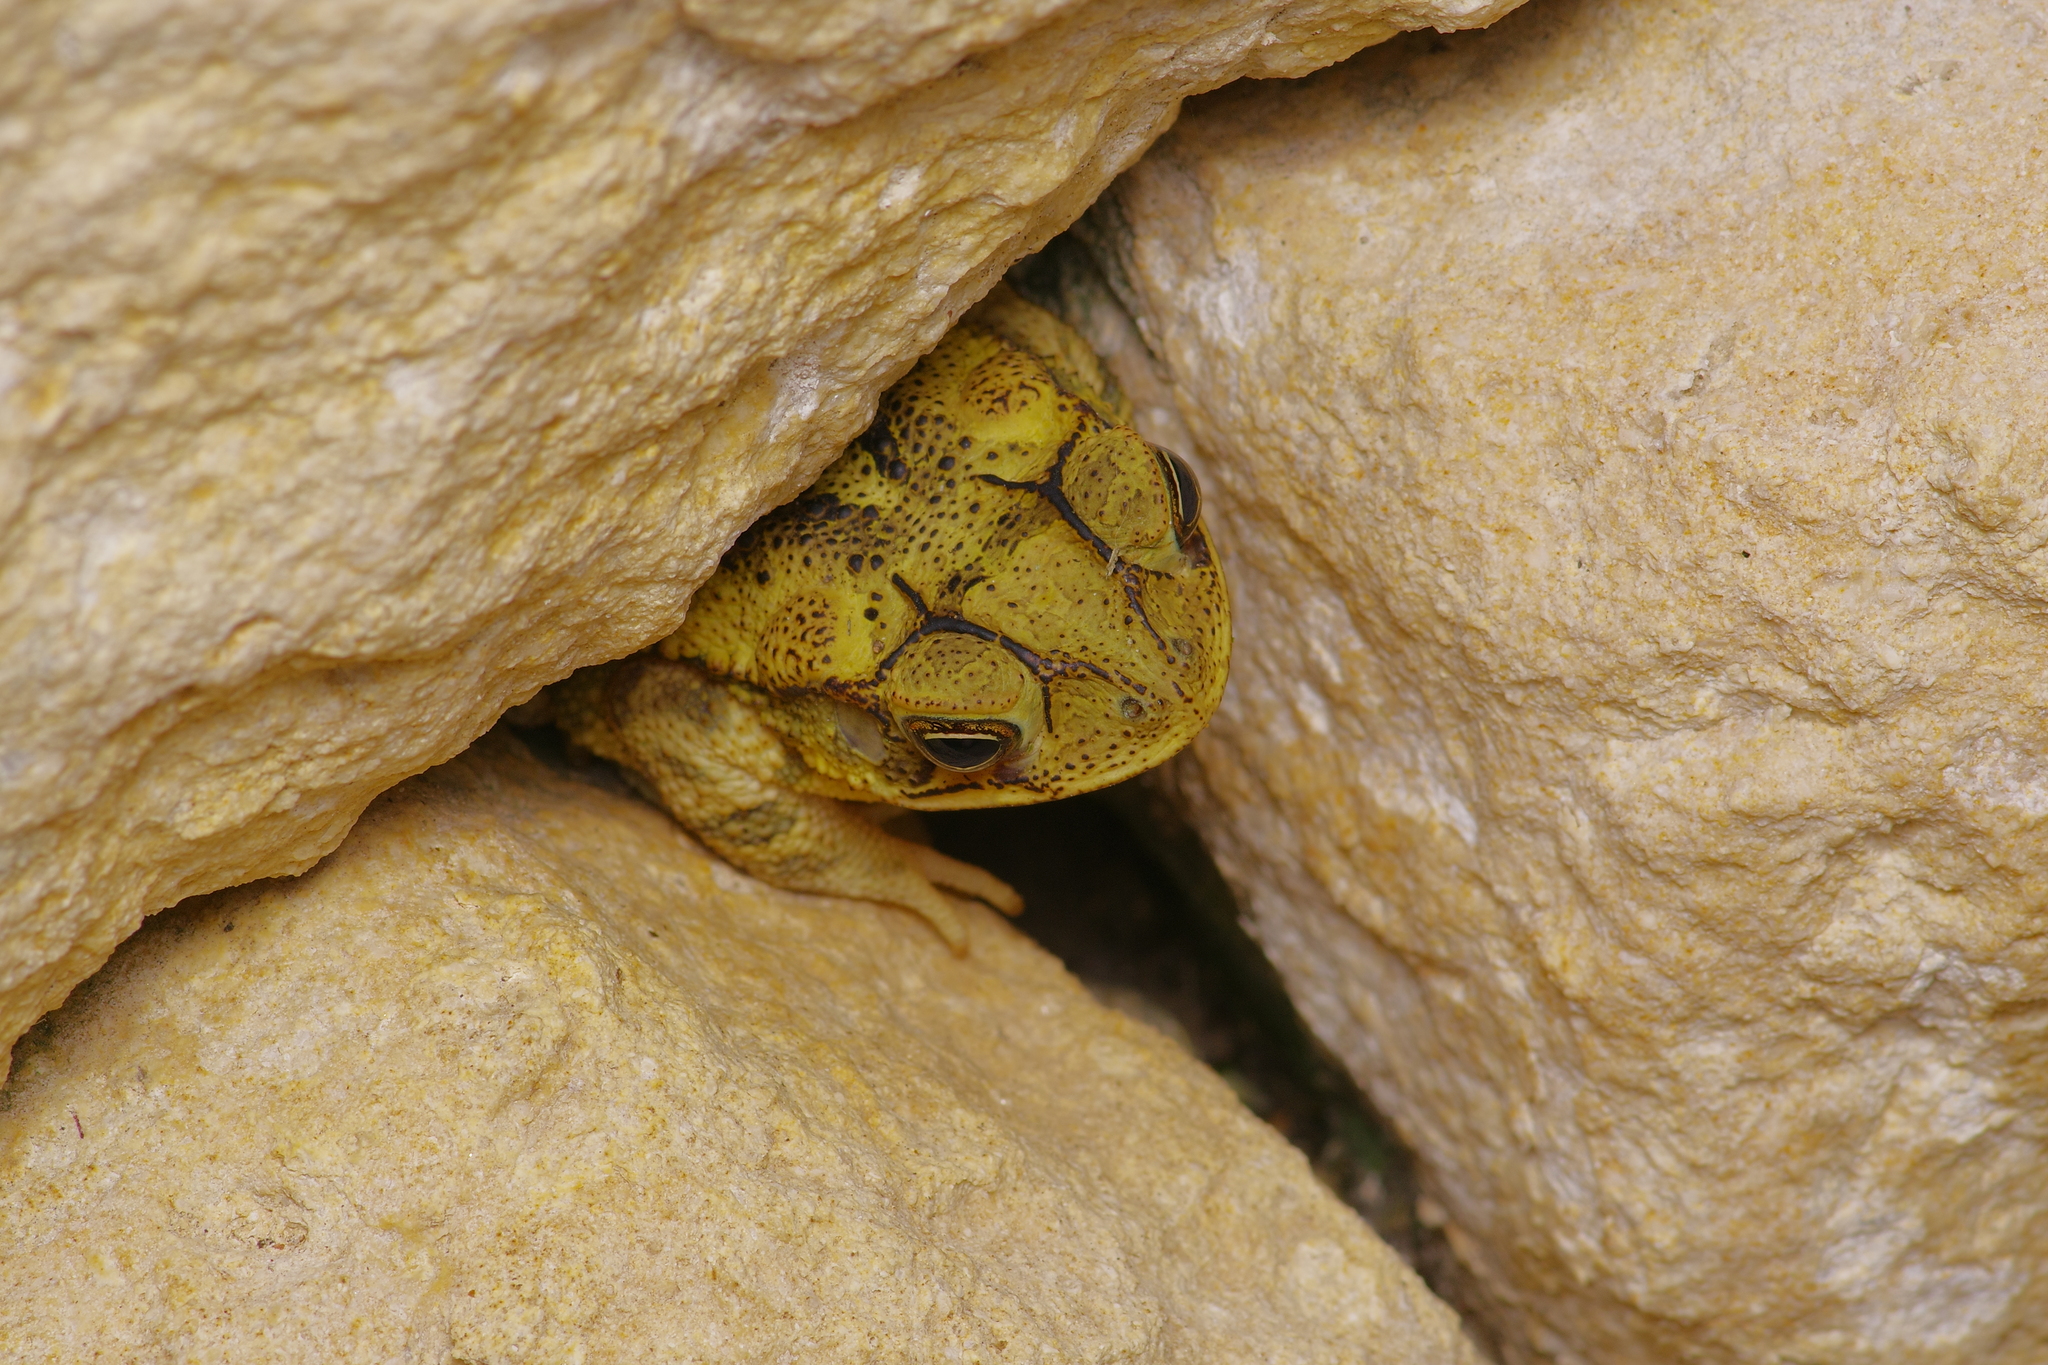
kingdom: Animalia
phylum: Chordata
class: Amphibia
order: Anura
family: Bufonidae
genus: Incilius
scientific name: Incilius nebulifer
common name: Gulf coast toad
